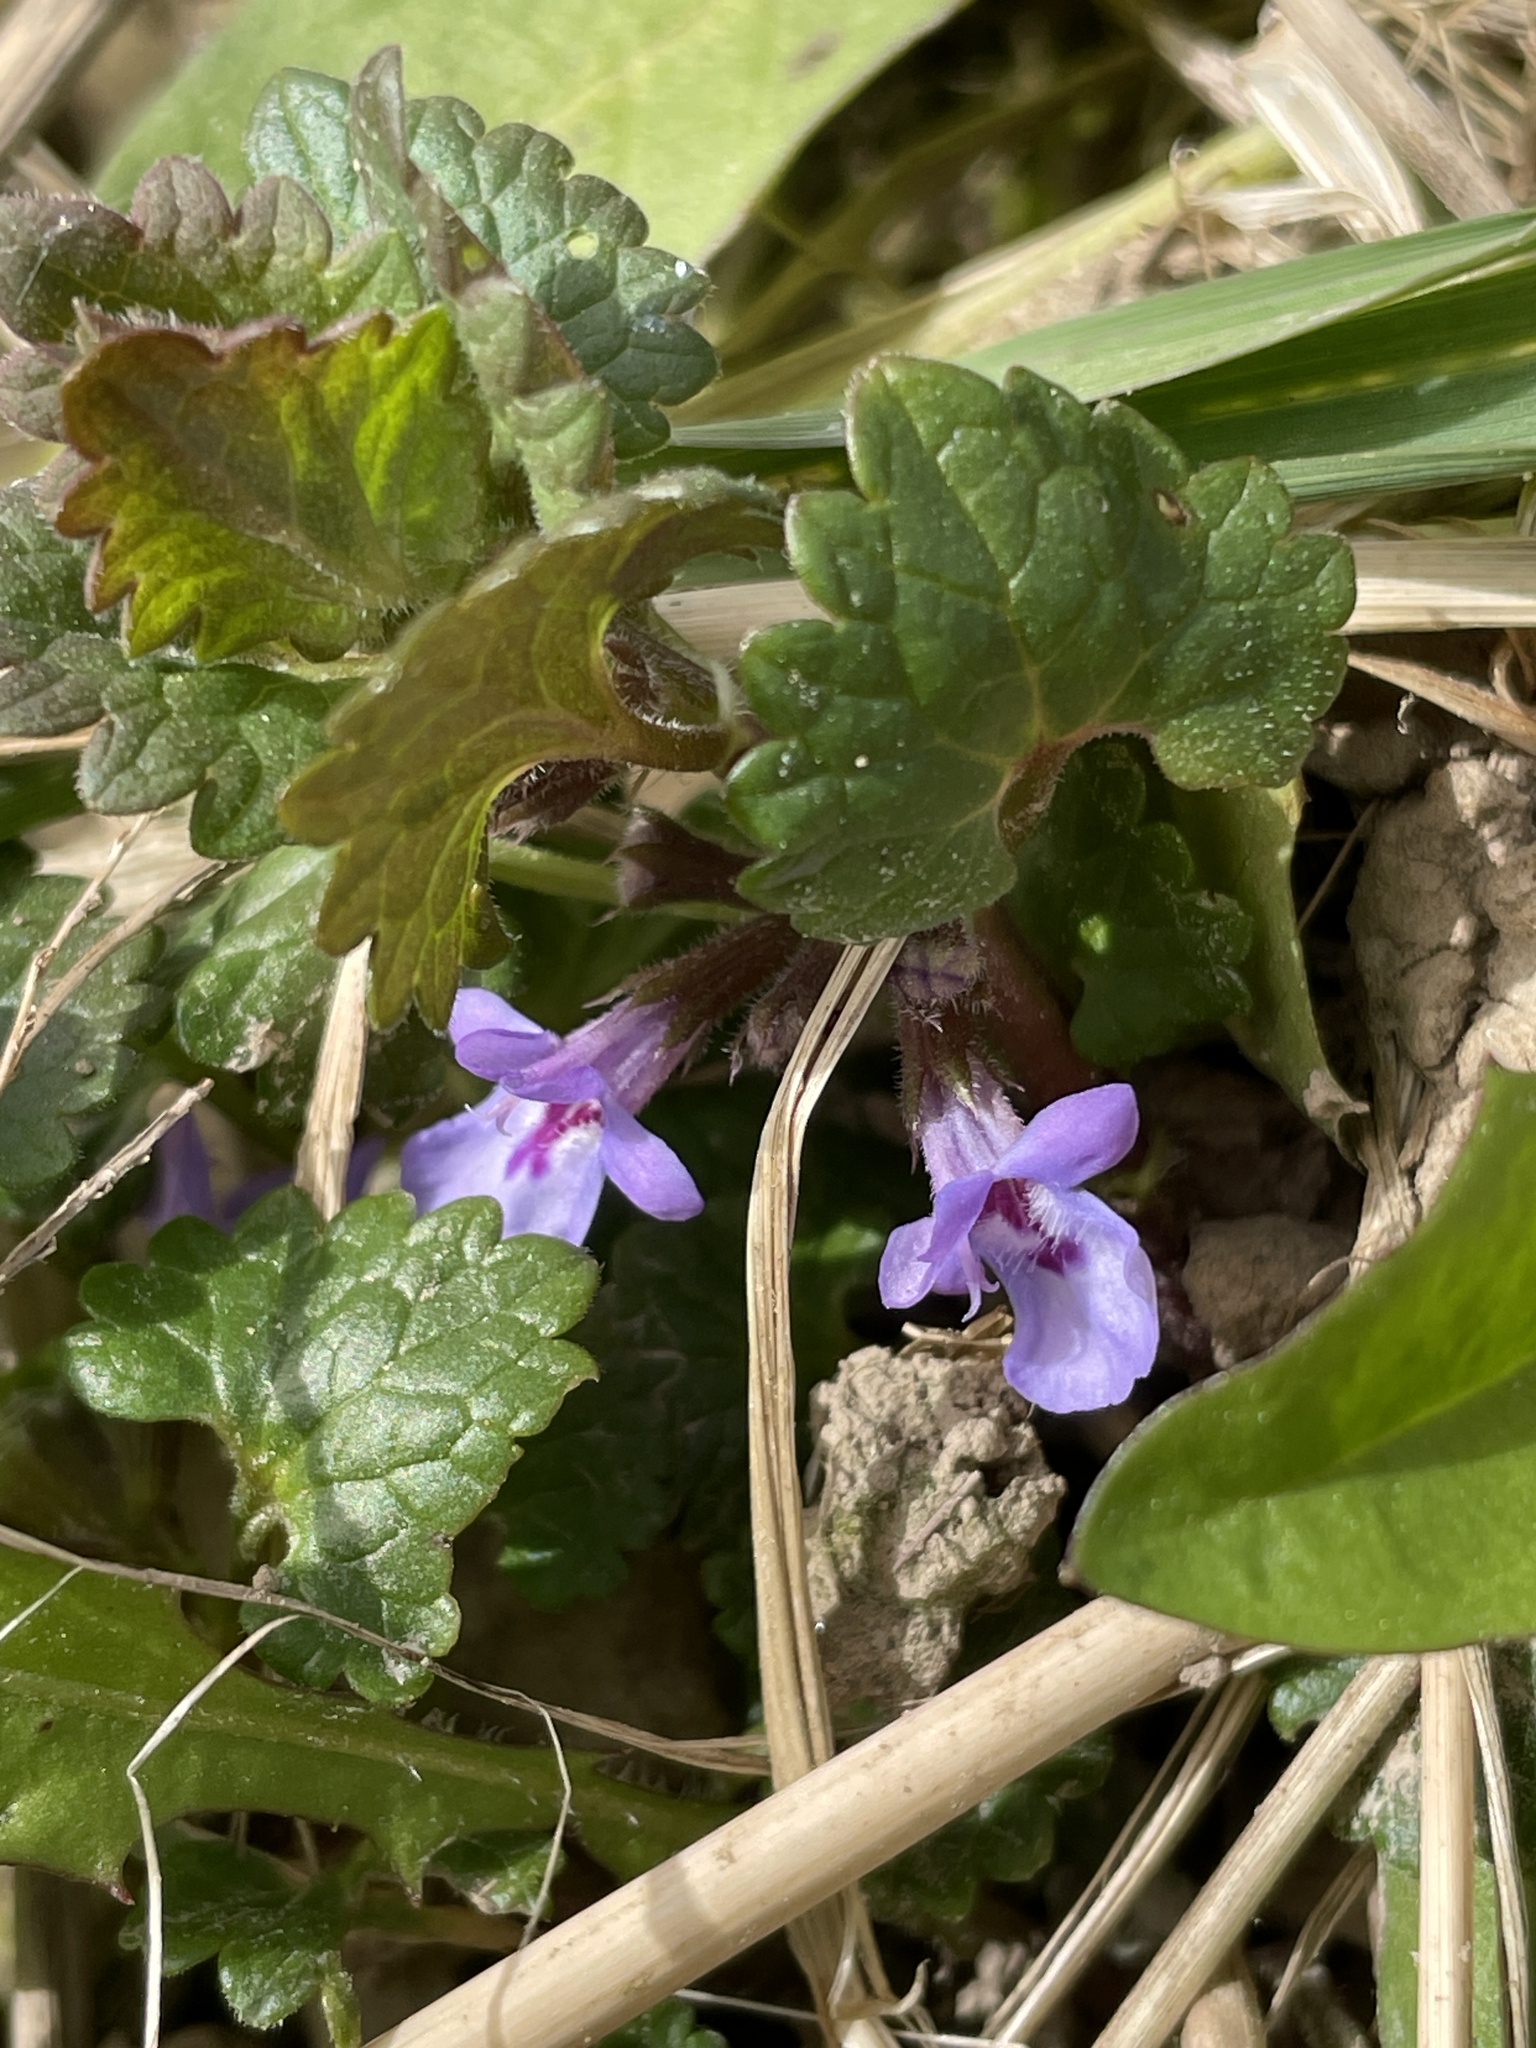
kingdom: Plantae
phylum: Tracheophyta
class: Magnoliopsida
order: Lamiales
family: Lamiaceae
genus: Glechoma
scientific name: Glechoma hederacea
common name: Ground ivy
